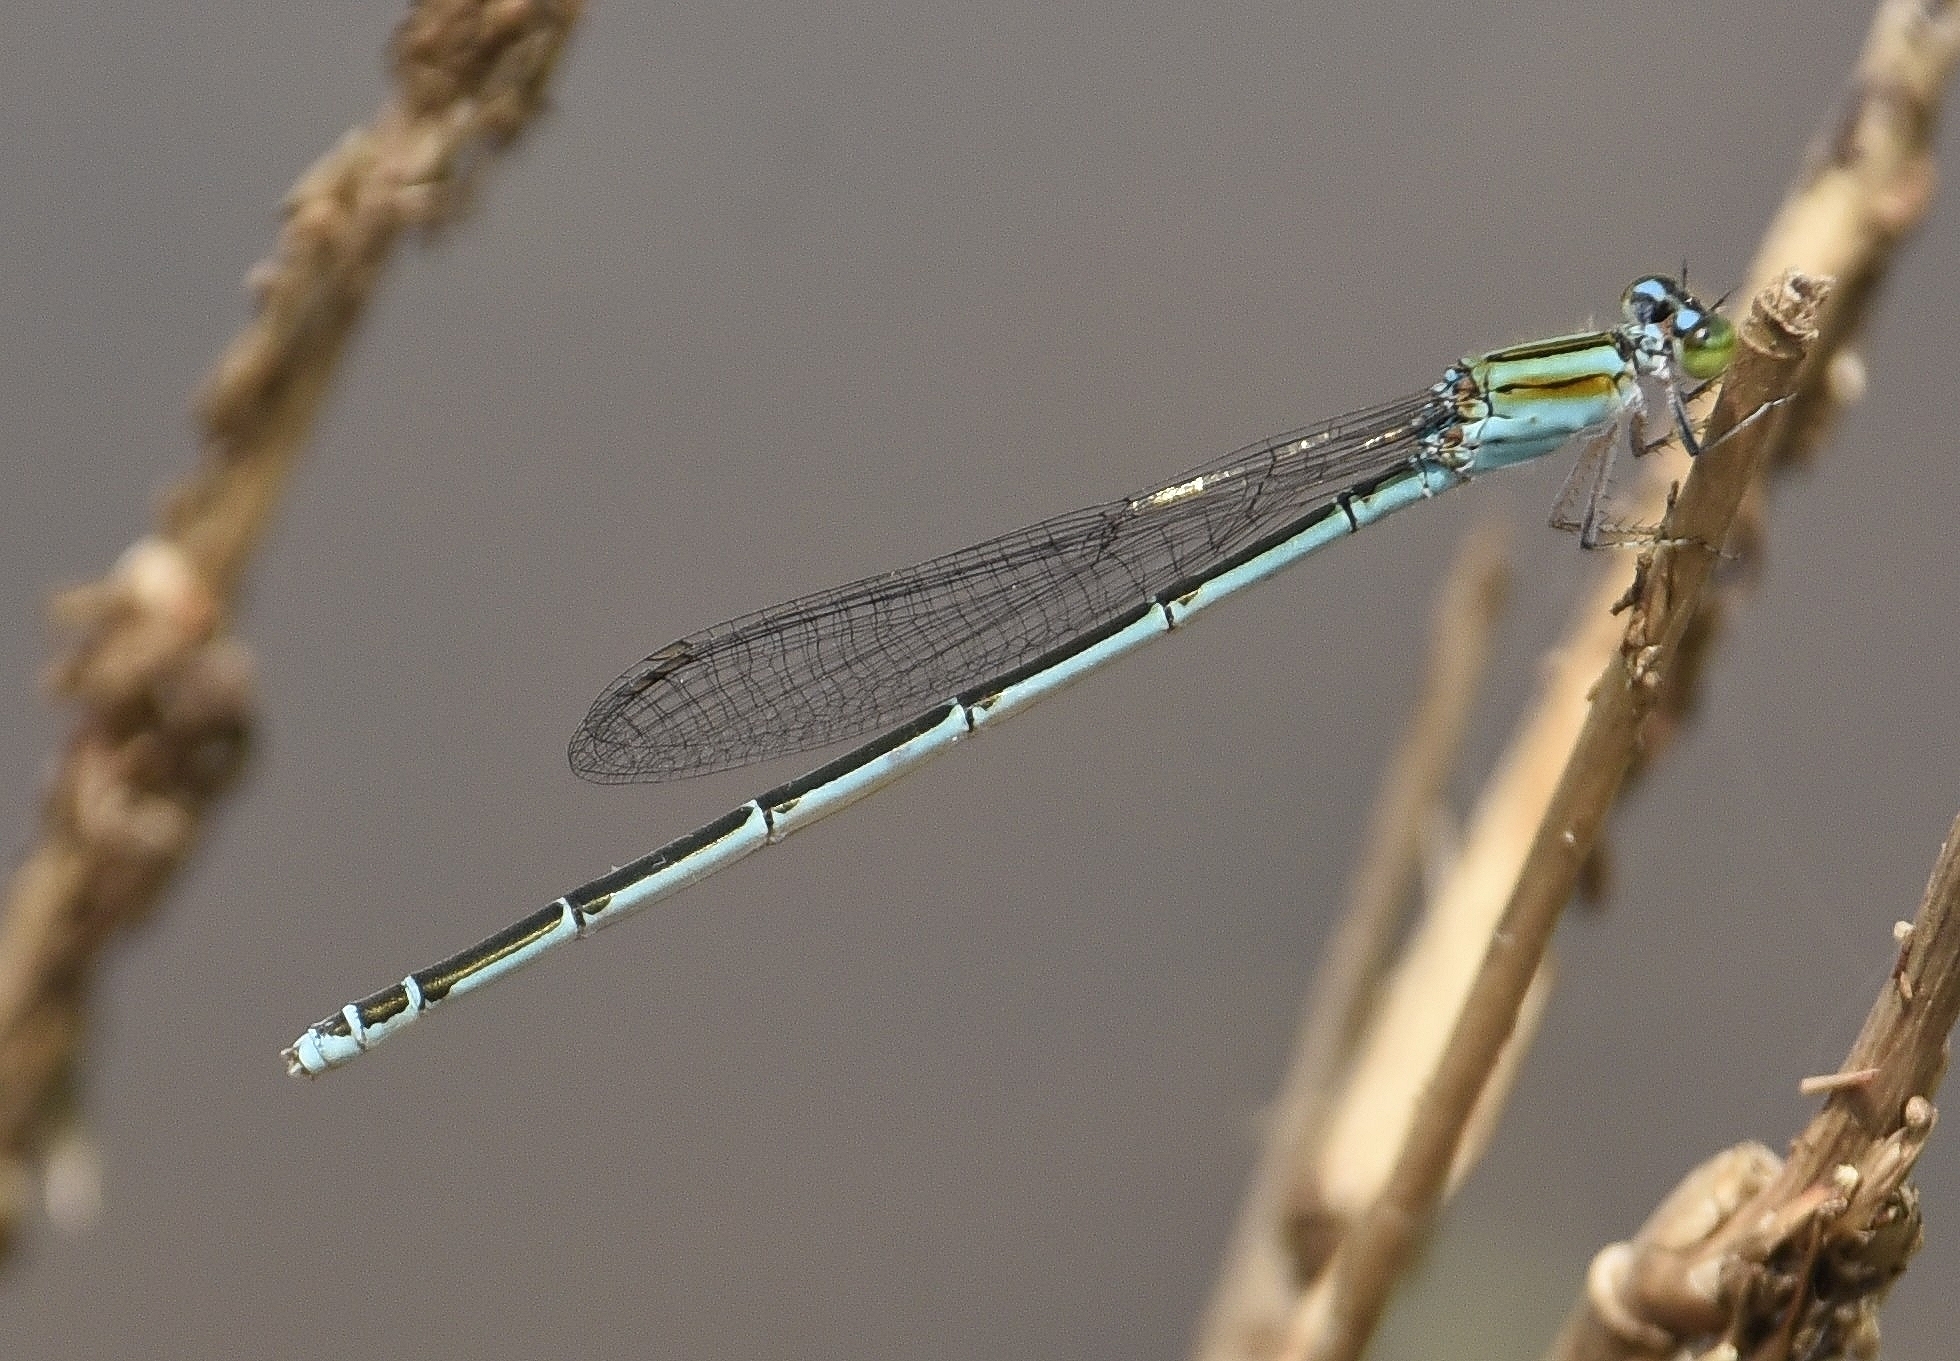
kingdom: Animalia
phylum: Arthropoda
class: Insecta
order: Odonata
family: Coenagrionidae
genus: Pseudagrion
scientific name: Pseudagrion malabaricum
